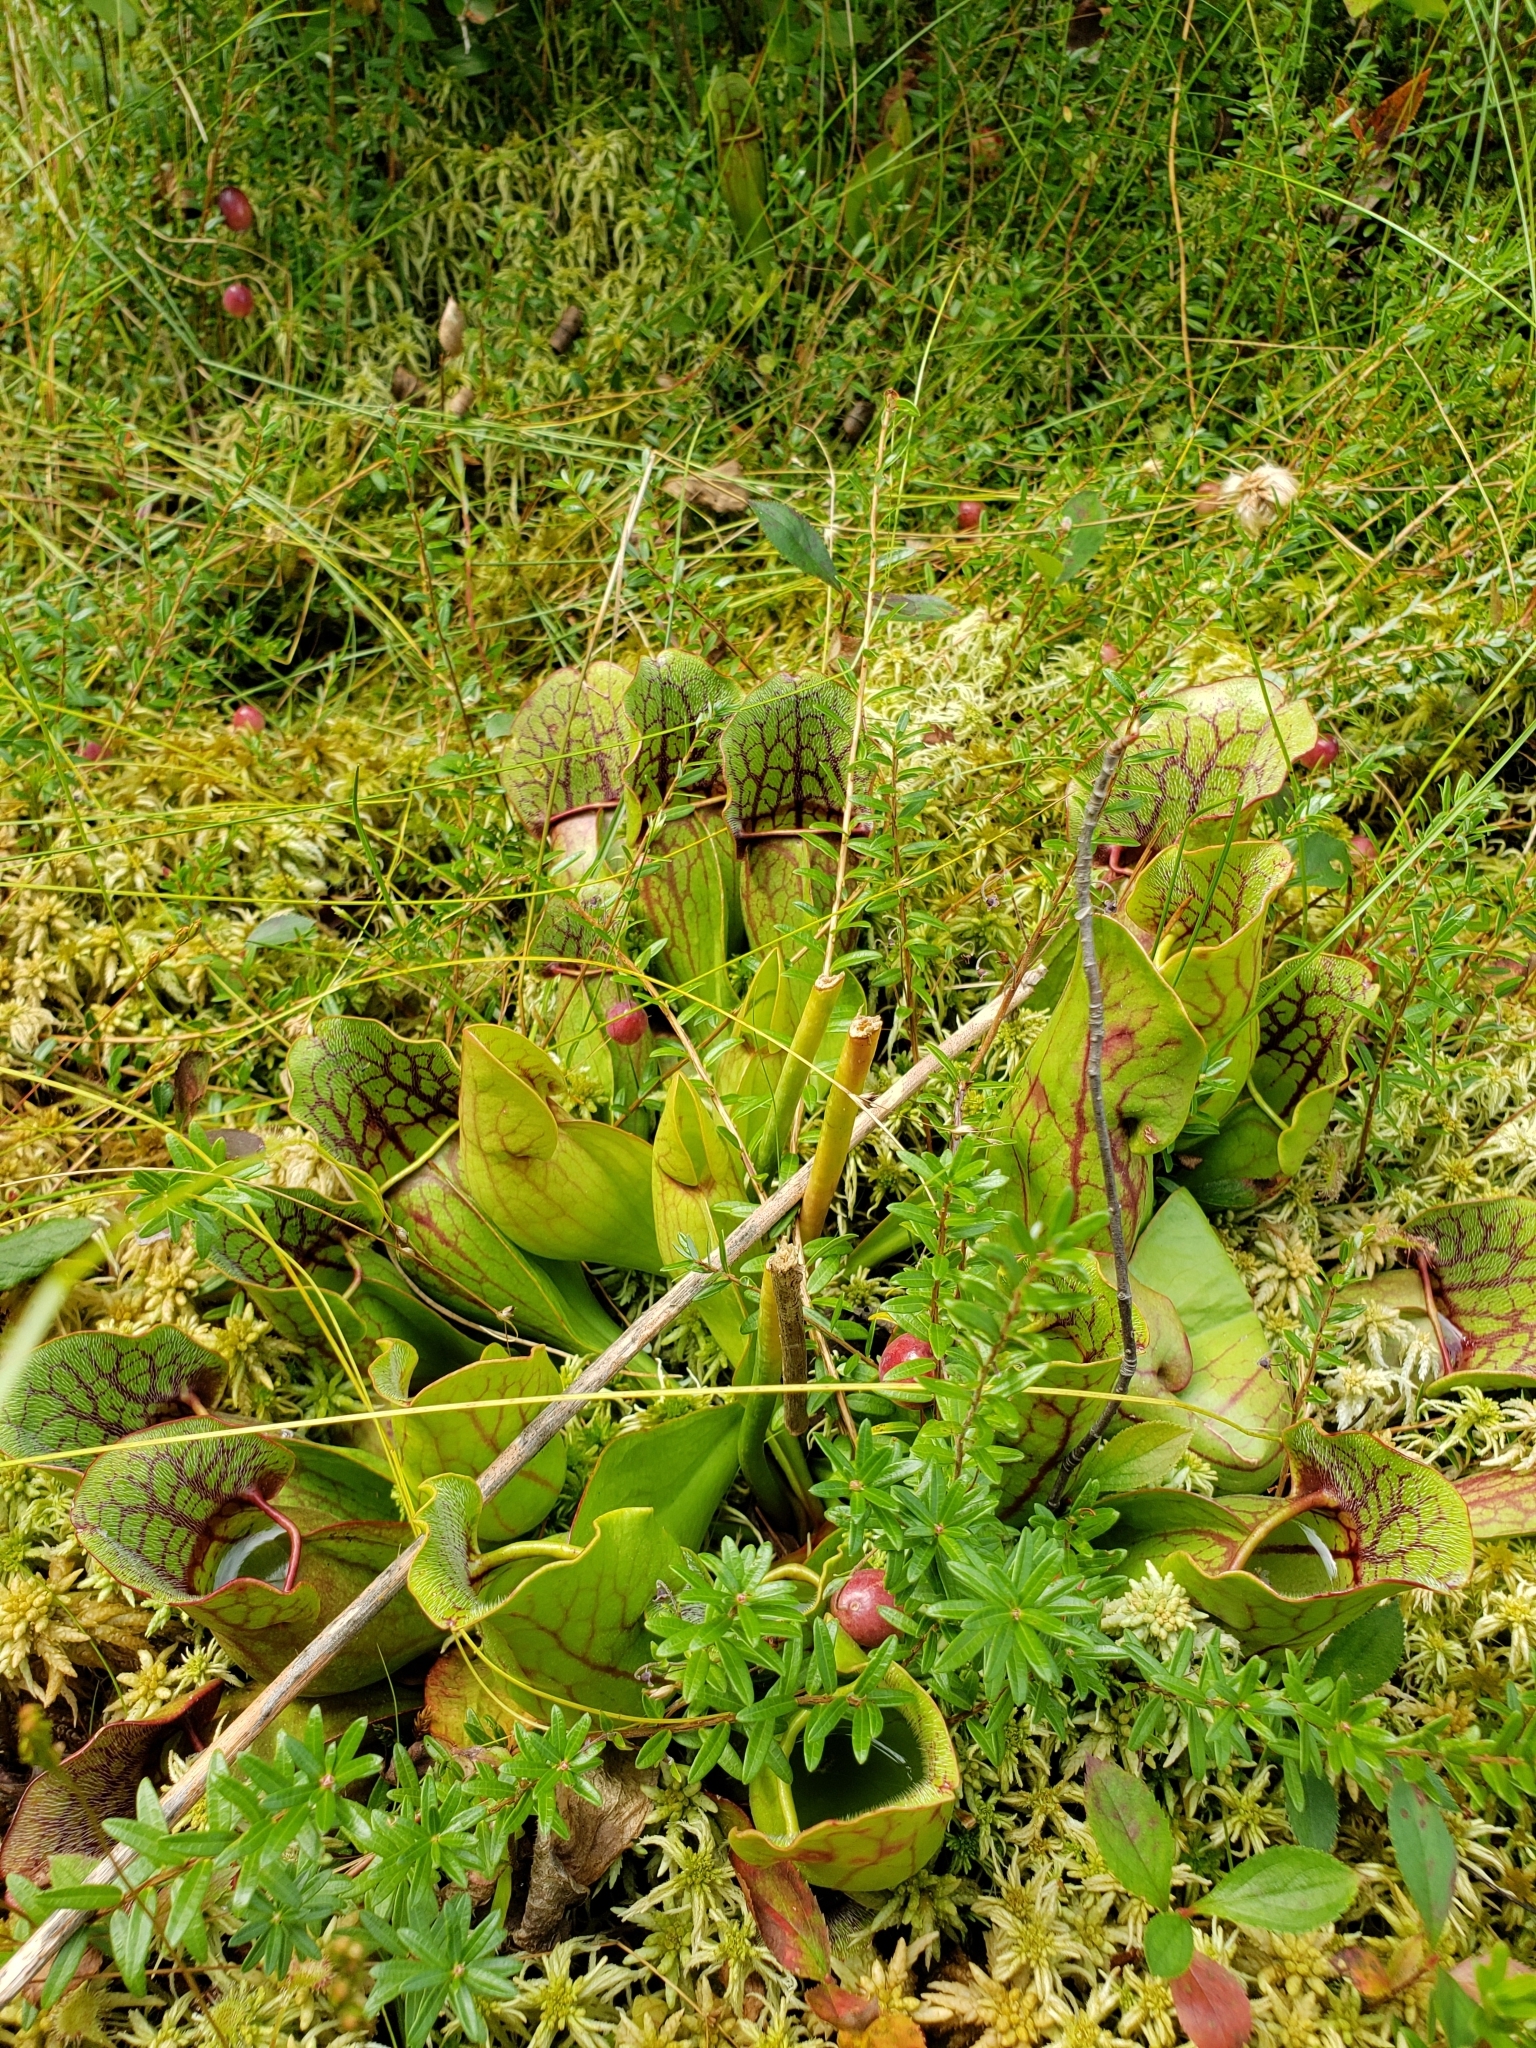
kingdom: Plantae
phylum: Tracheophyta
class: Magnoliopsida
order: Ericales
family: Sarraceniaceae
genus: Sarracenia
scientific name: Sarracenia purpurea
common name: Pitcherplant
